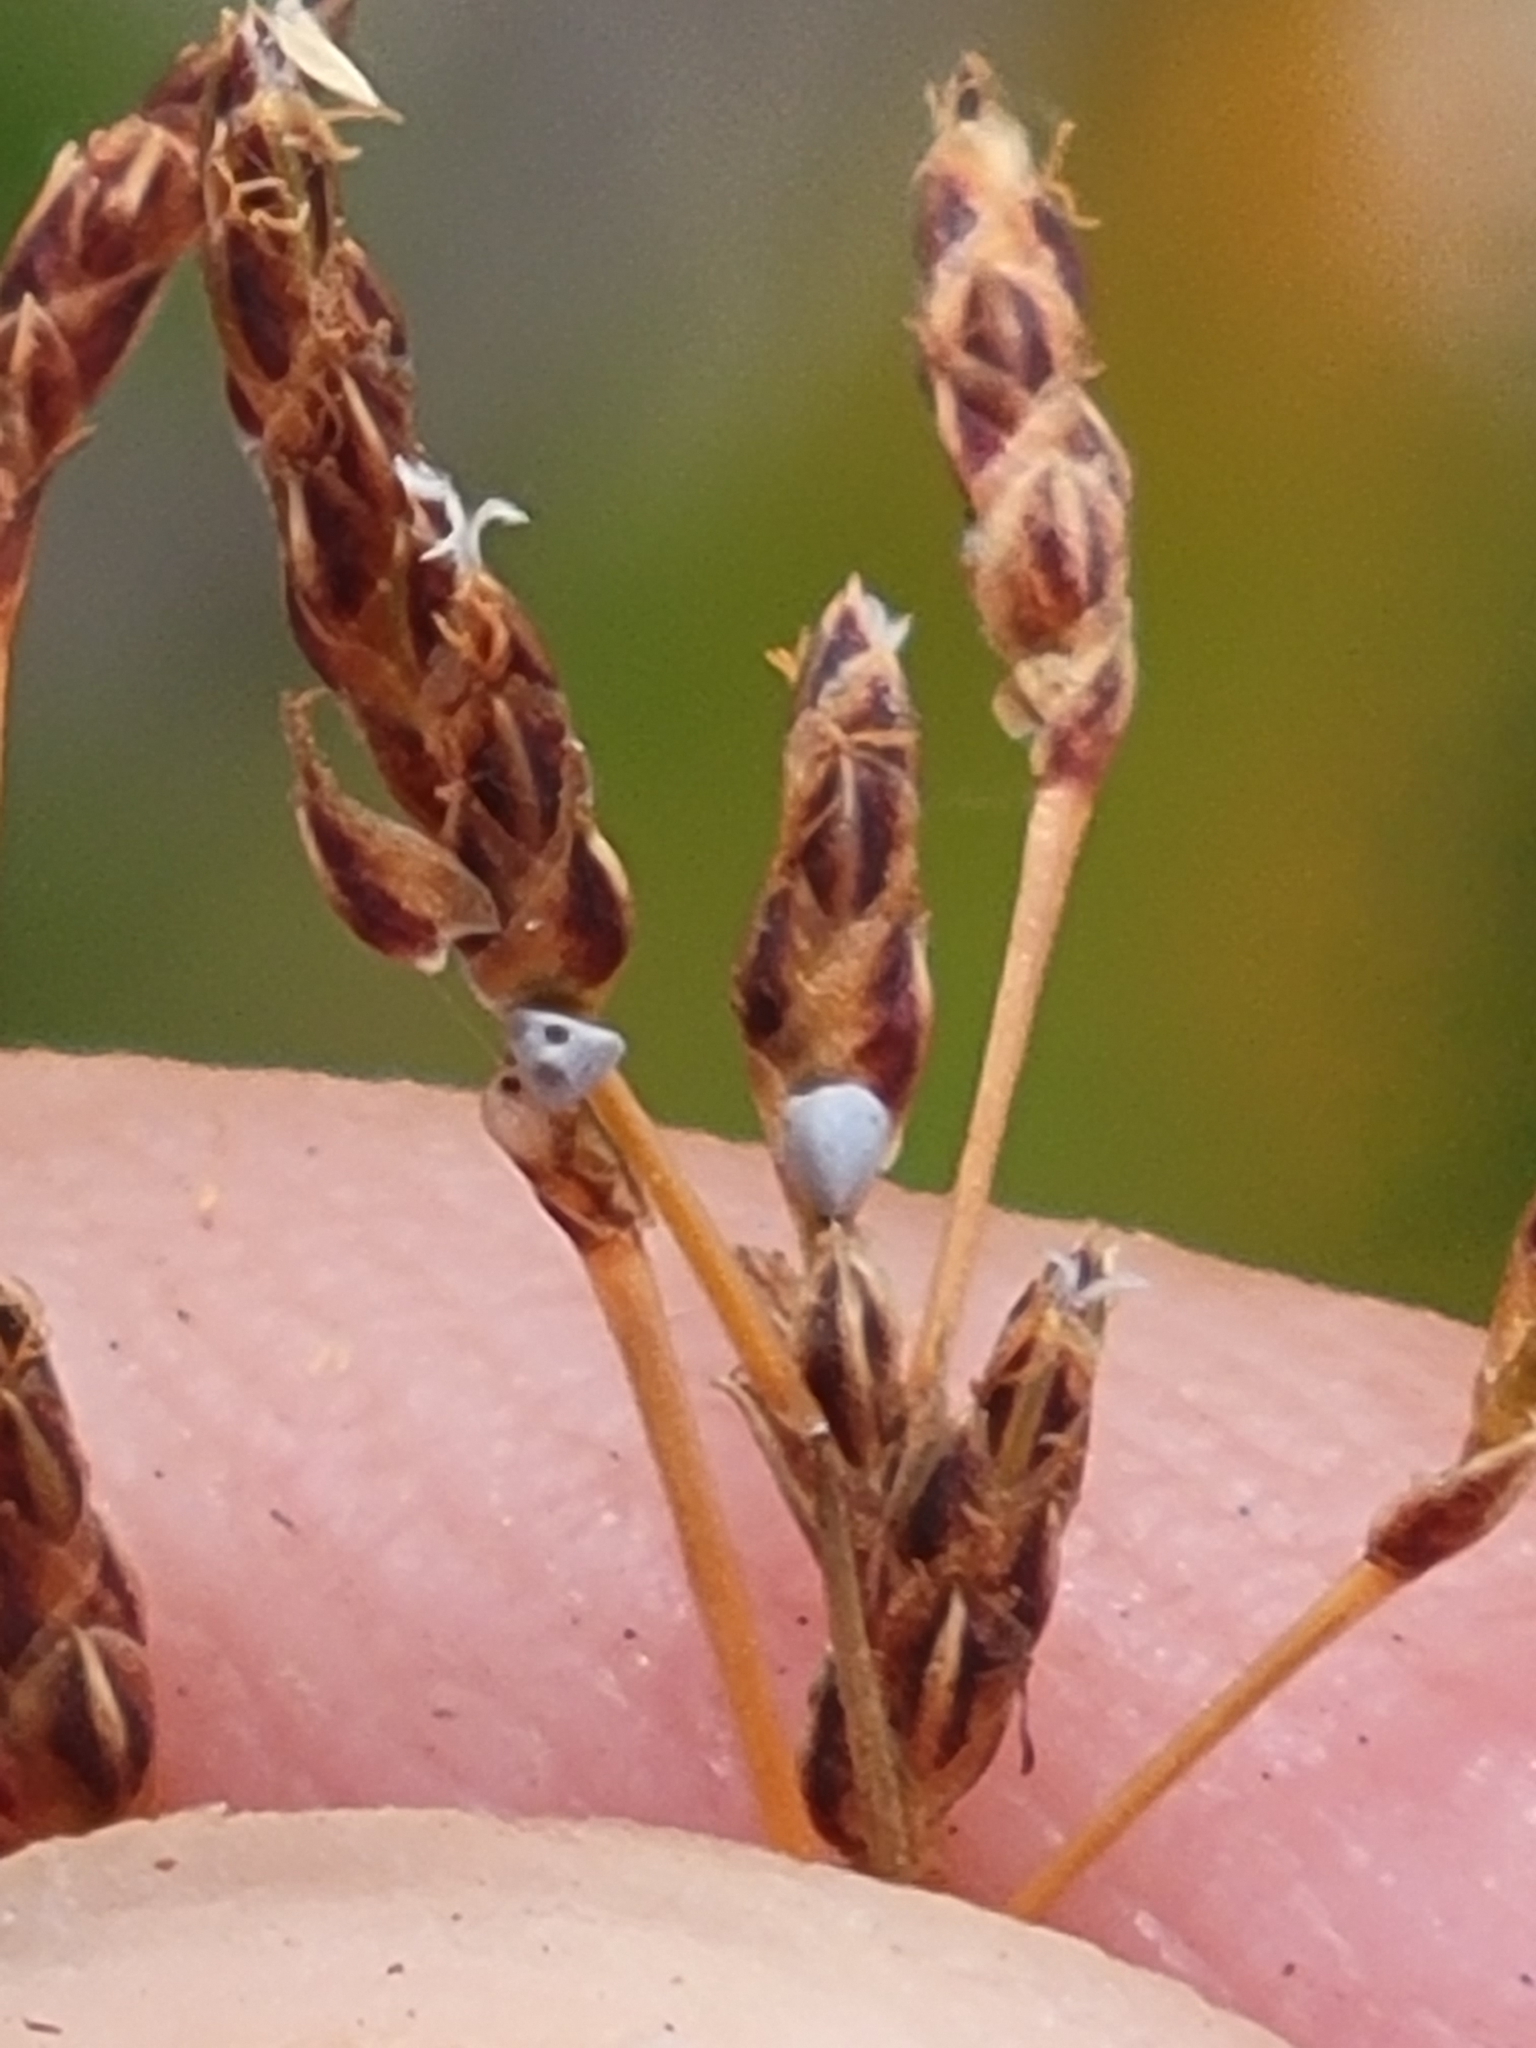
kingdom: Plantae
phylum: Tracheophyta
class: Liliopsida
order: Poales
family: Cyperaceae
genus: Bulbostylis
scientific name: Bulbostylis ciliatifolia
